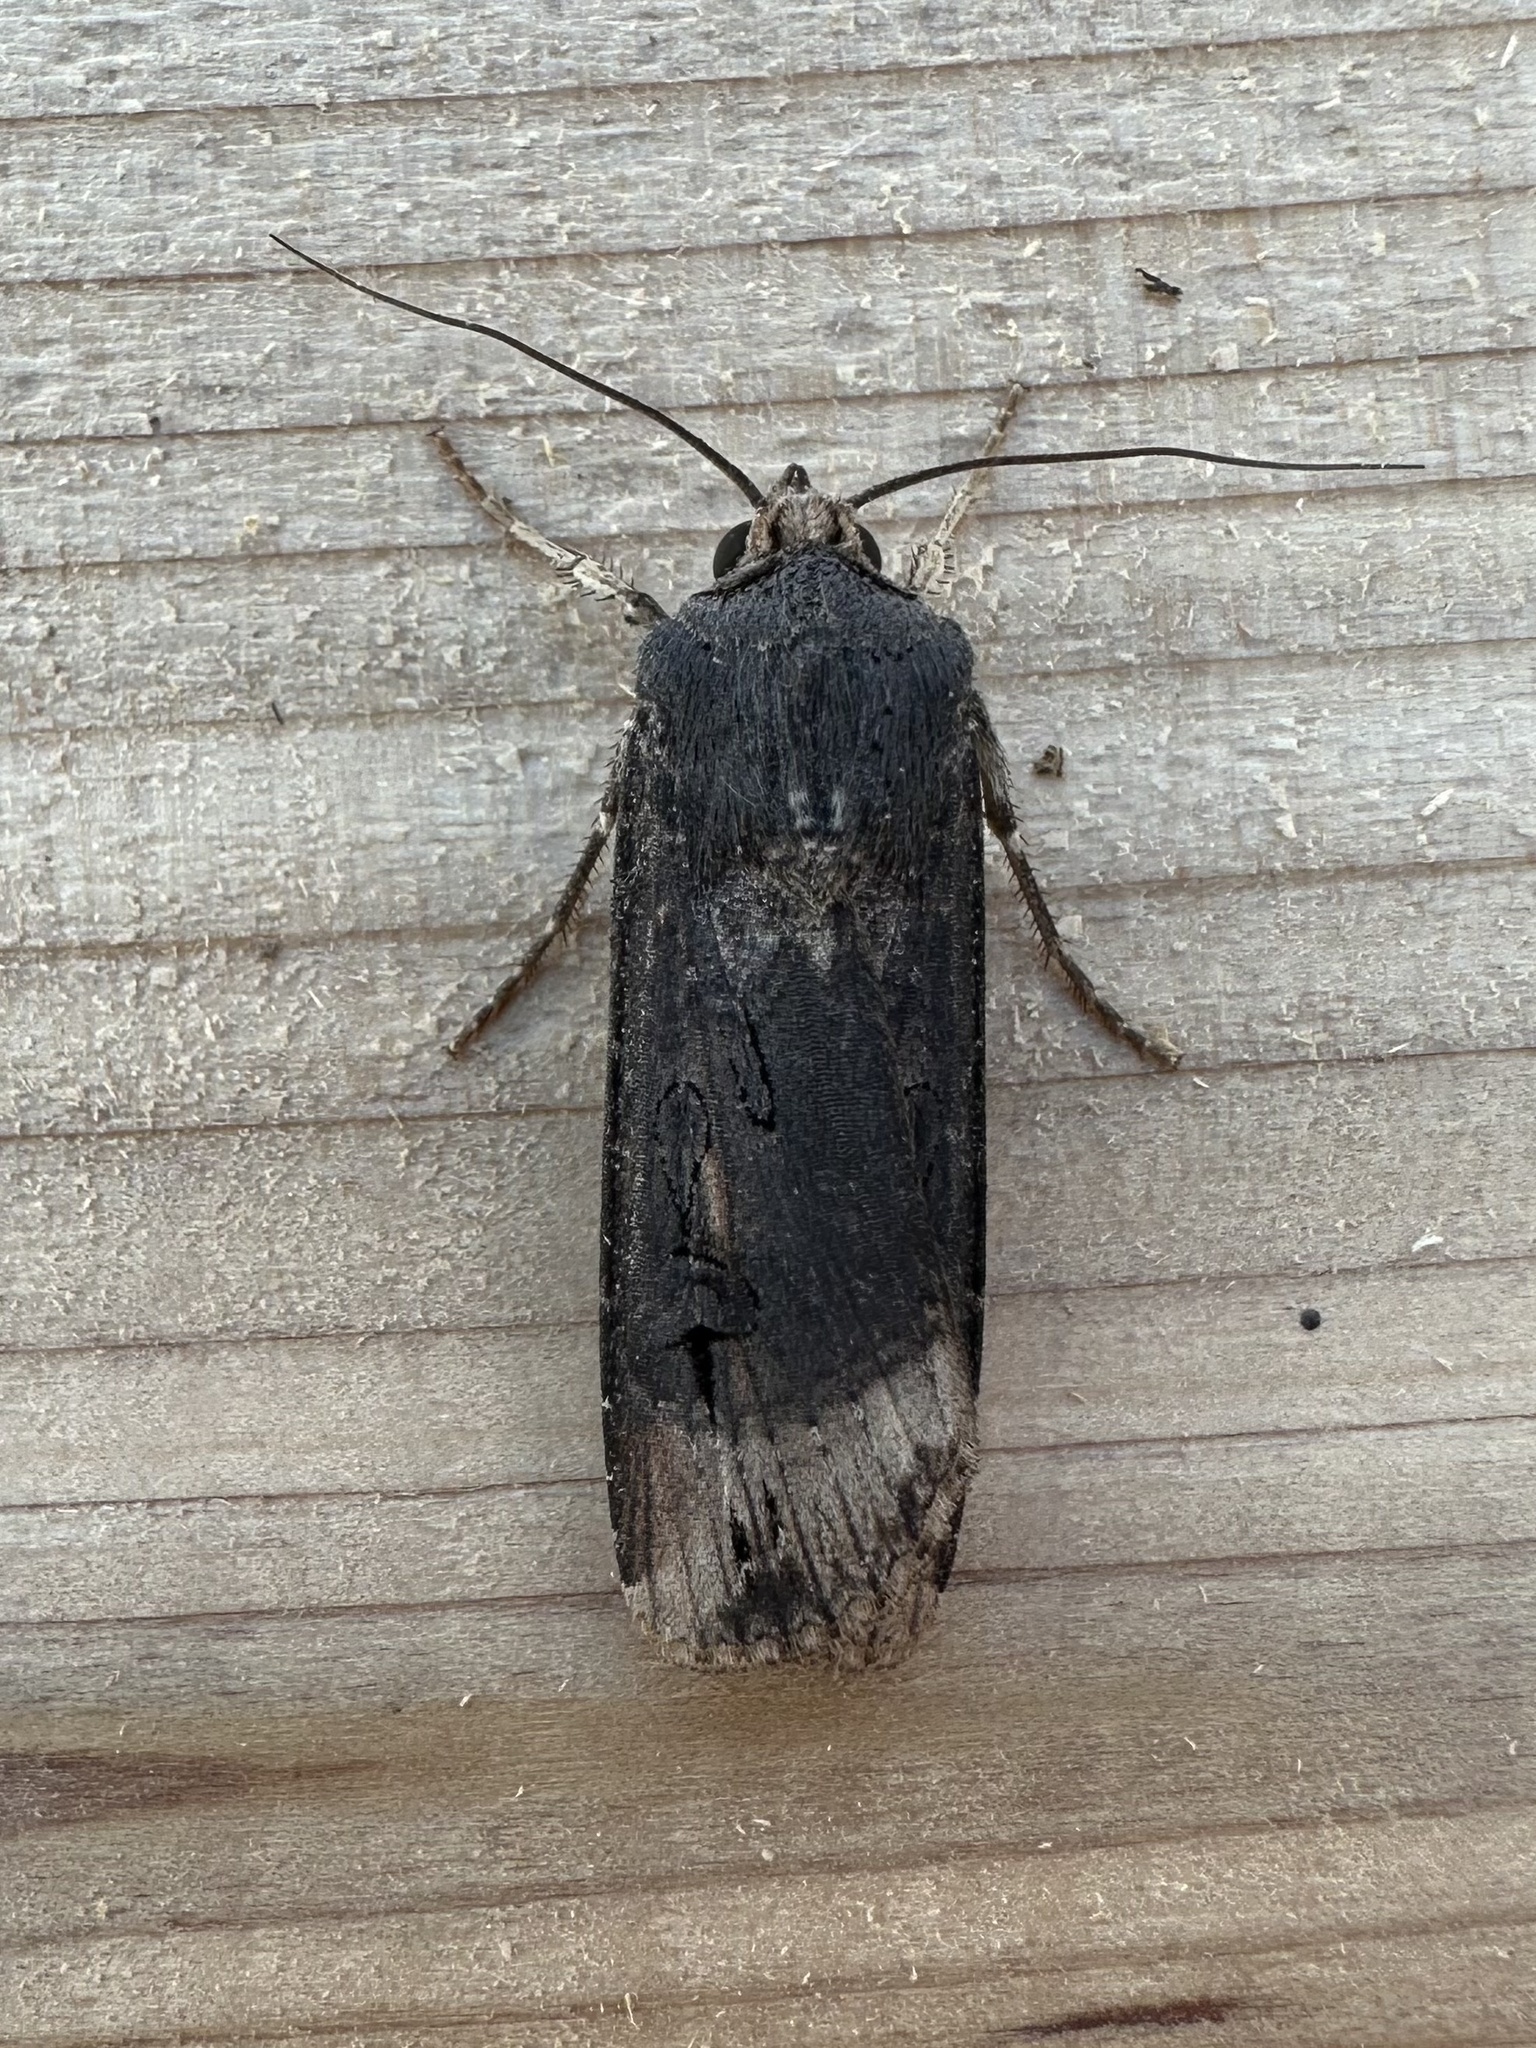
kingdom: Animalia
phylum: Arthropoda
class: Insecta
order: Lepidoptera
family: Noctuidae
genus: Agrotis
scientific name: Agrotis ipsilon
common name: Dark sword-grass
